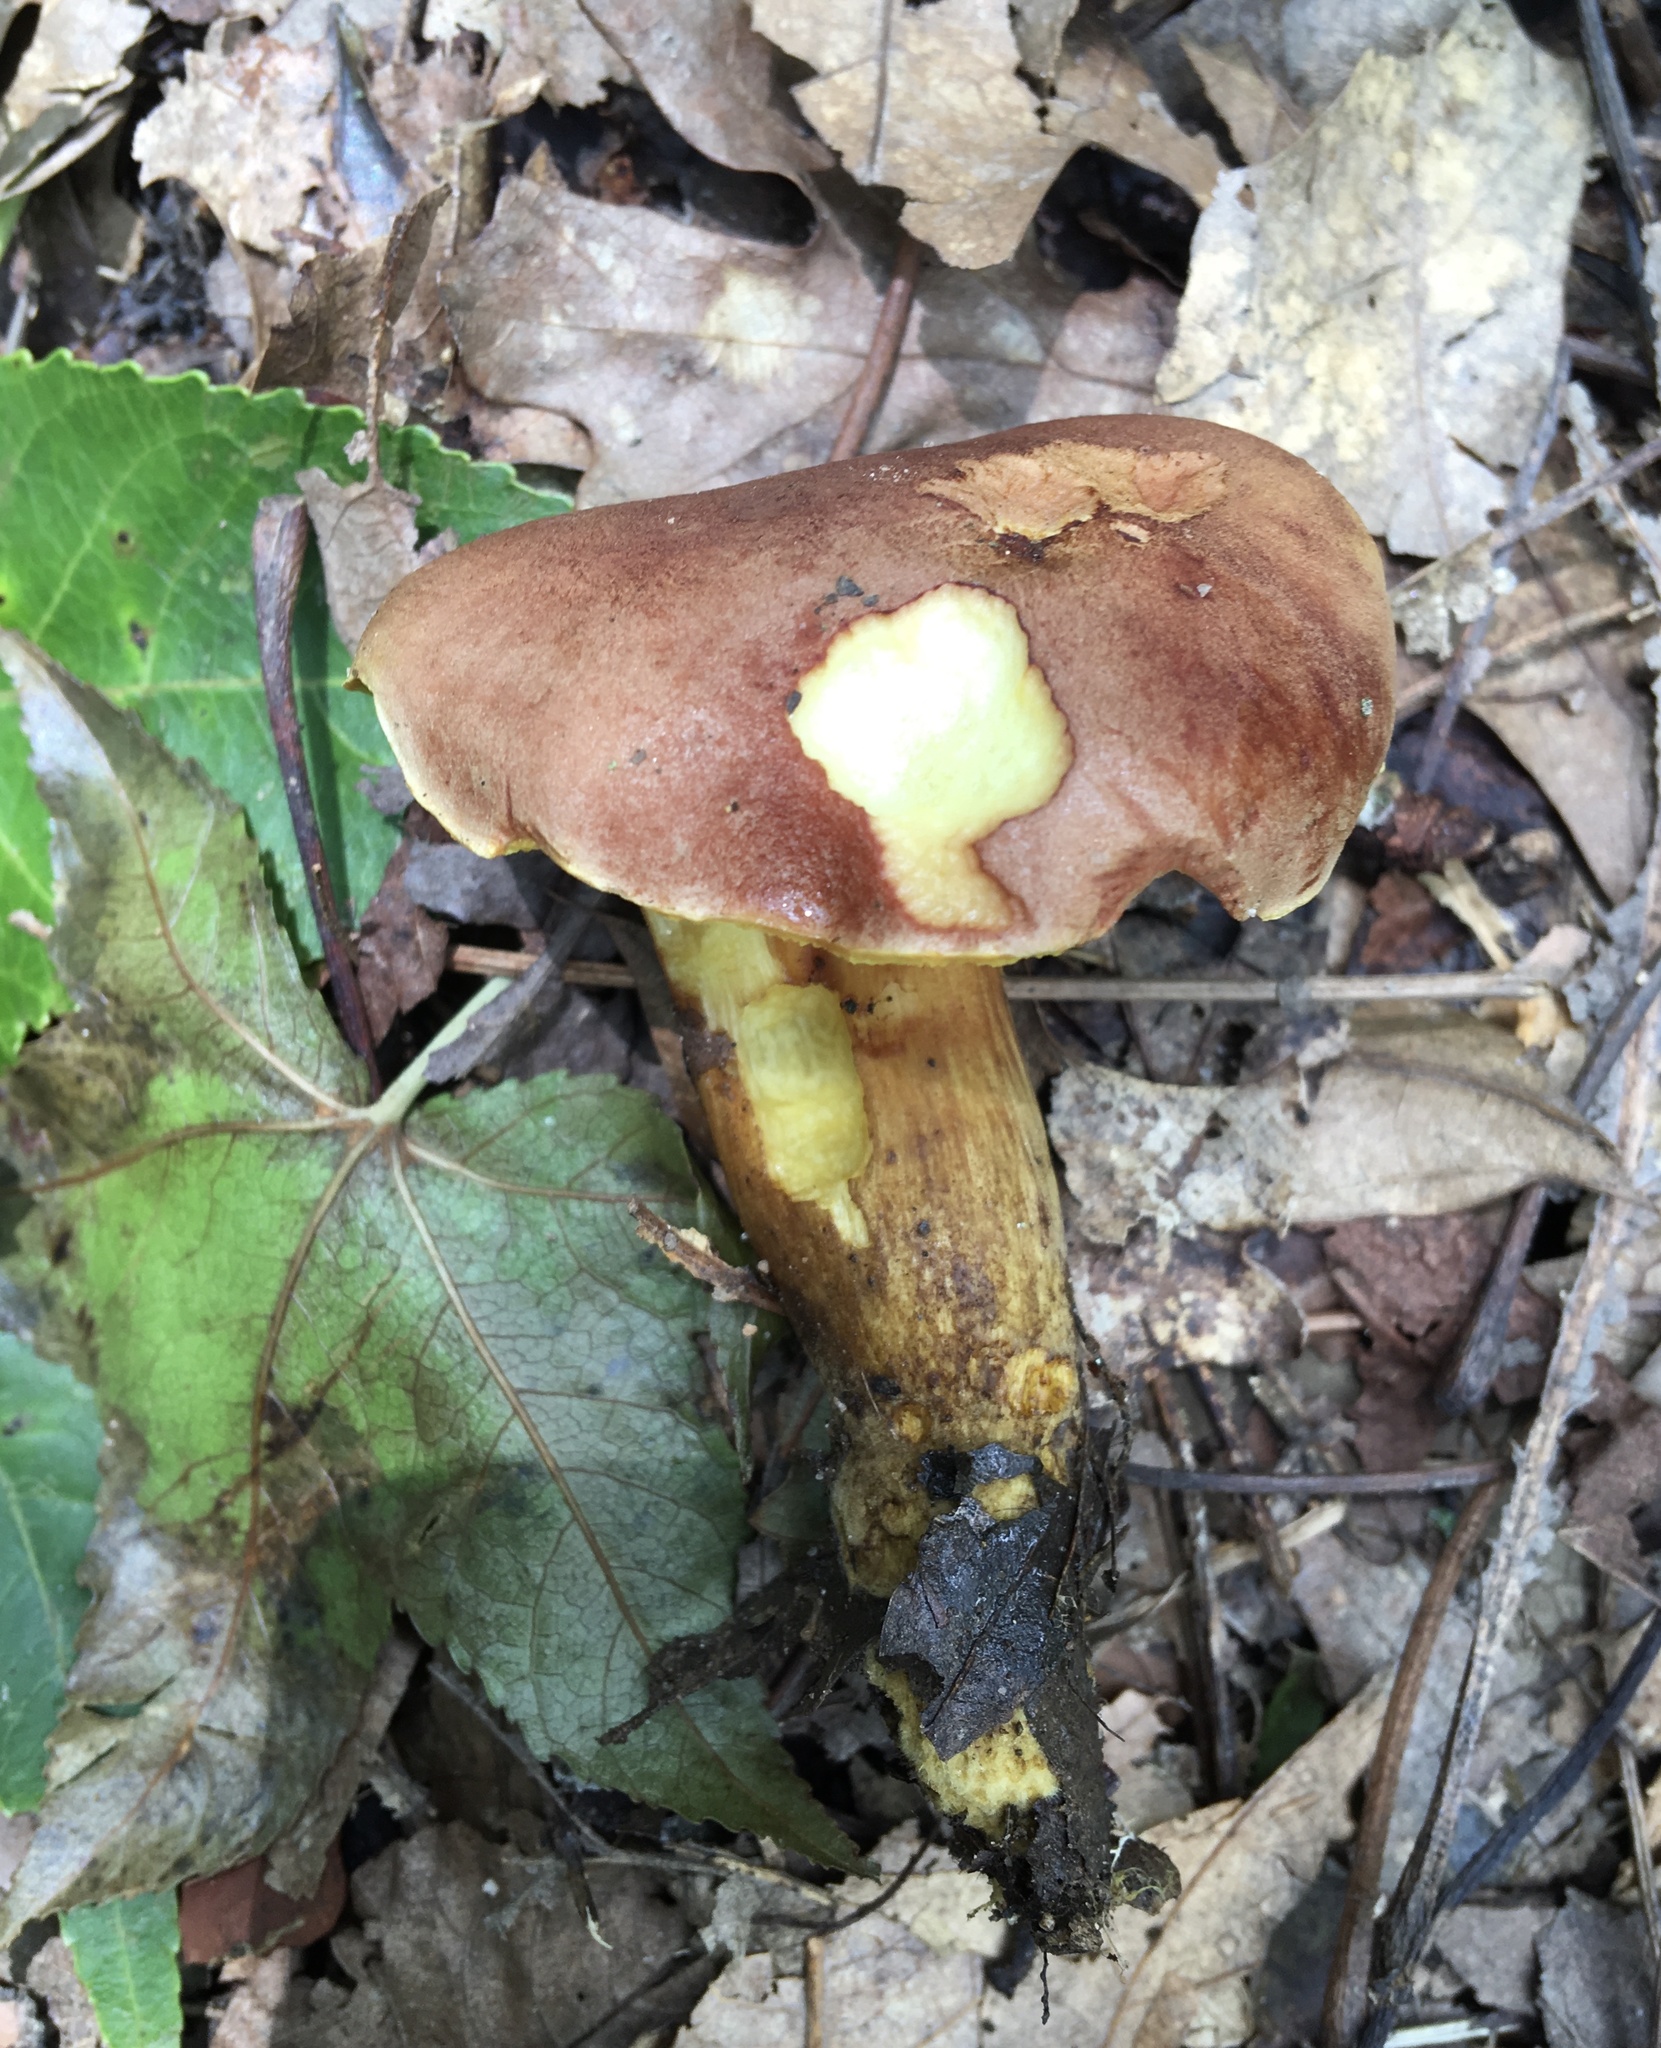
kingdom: Fungi
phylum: Basidiomycota
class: Agaricomycetes
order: Boletales
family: Boletaceae
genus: Aureoboletus
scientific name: Aureoboletus auriporus
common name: Sour gold-pored bolete
